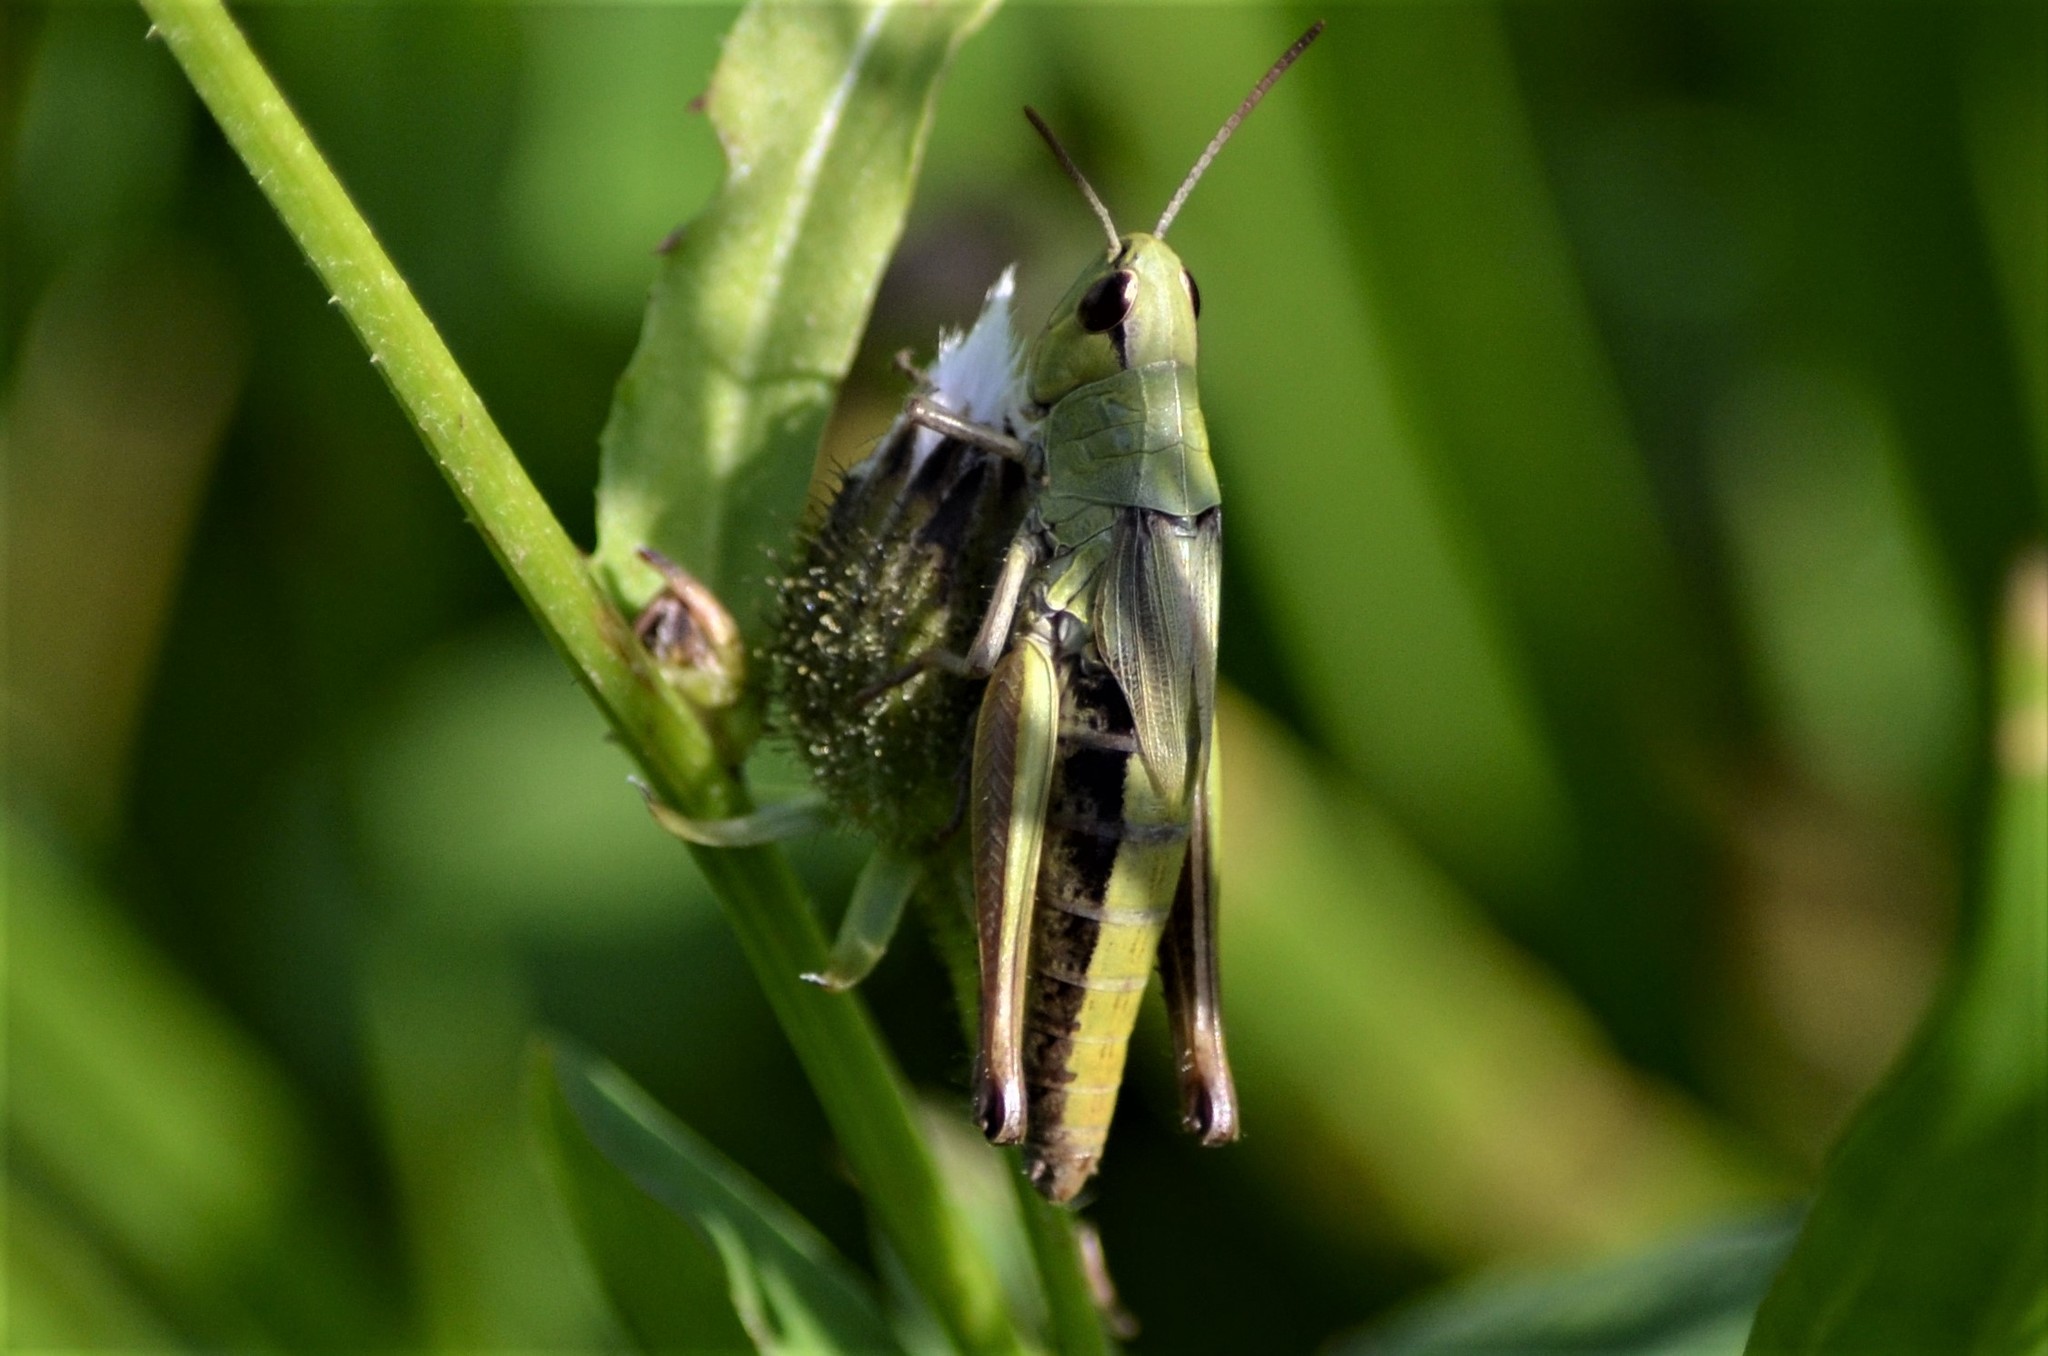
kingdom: Animalia
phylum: Arthropoda
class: Insecta
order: Orthoptera
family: Acrididae
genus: Pseudochorthippus
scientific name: Pseudochorthippus parallelus
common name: Meadow grasshopper
